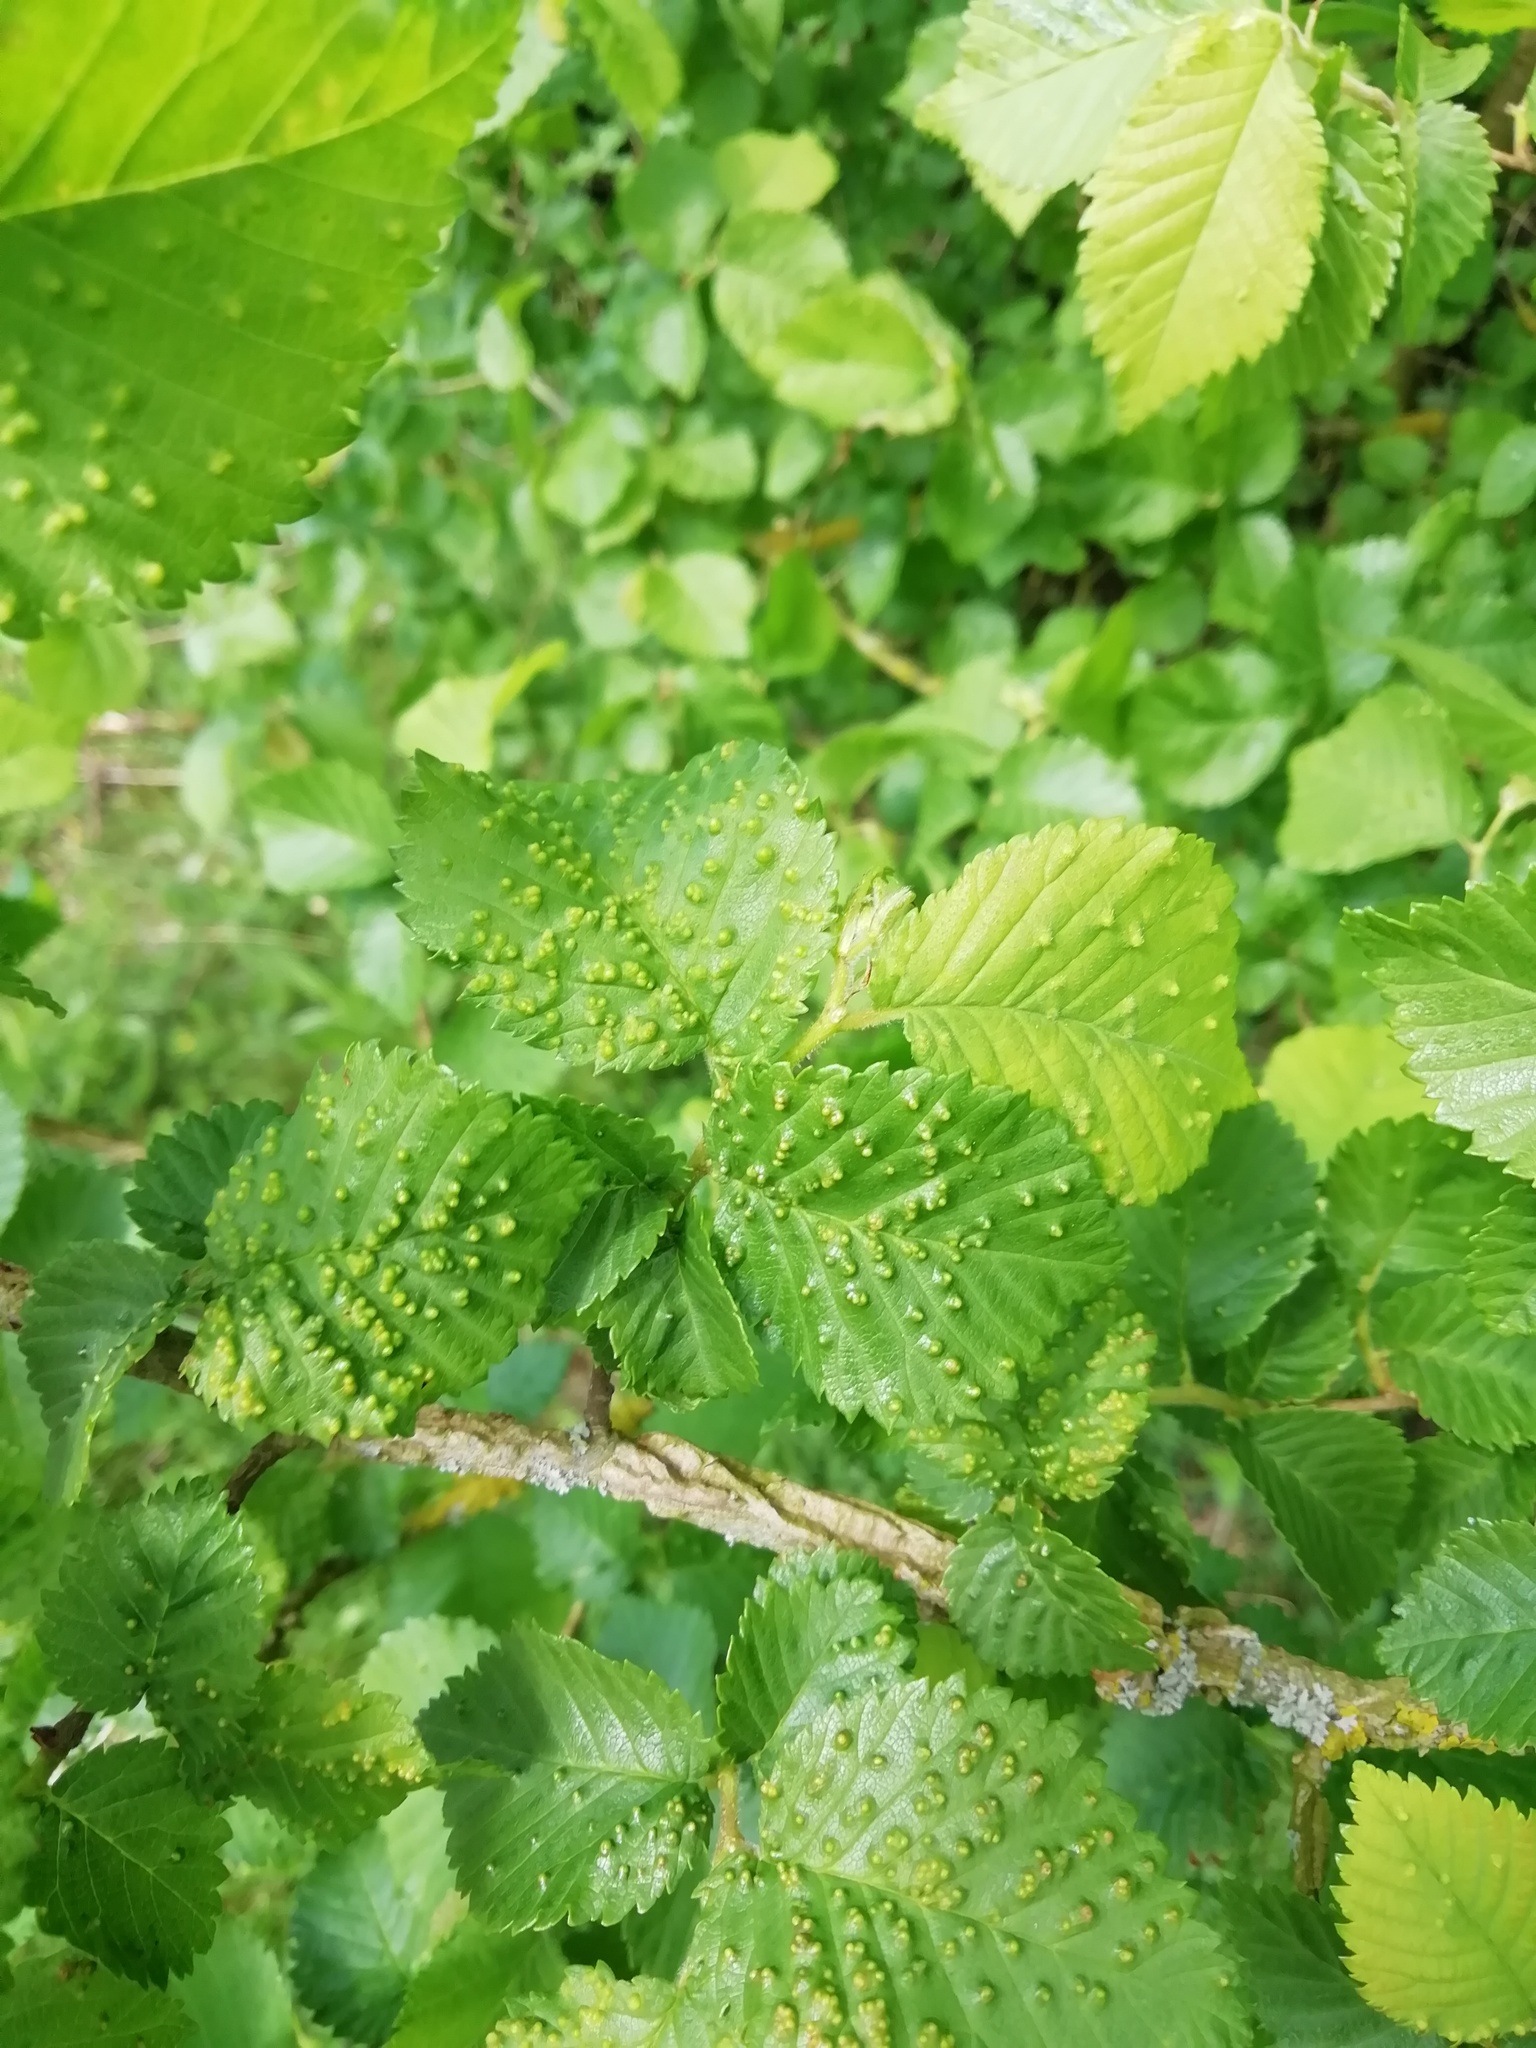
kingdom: Animalia
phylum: Arthropoda
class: Arachnida
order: Trombidiformes
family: Eriophyidae
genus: Aceria
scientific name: Aceria brevipunctata
